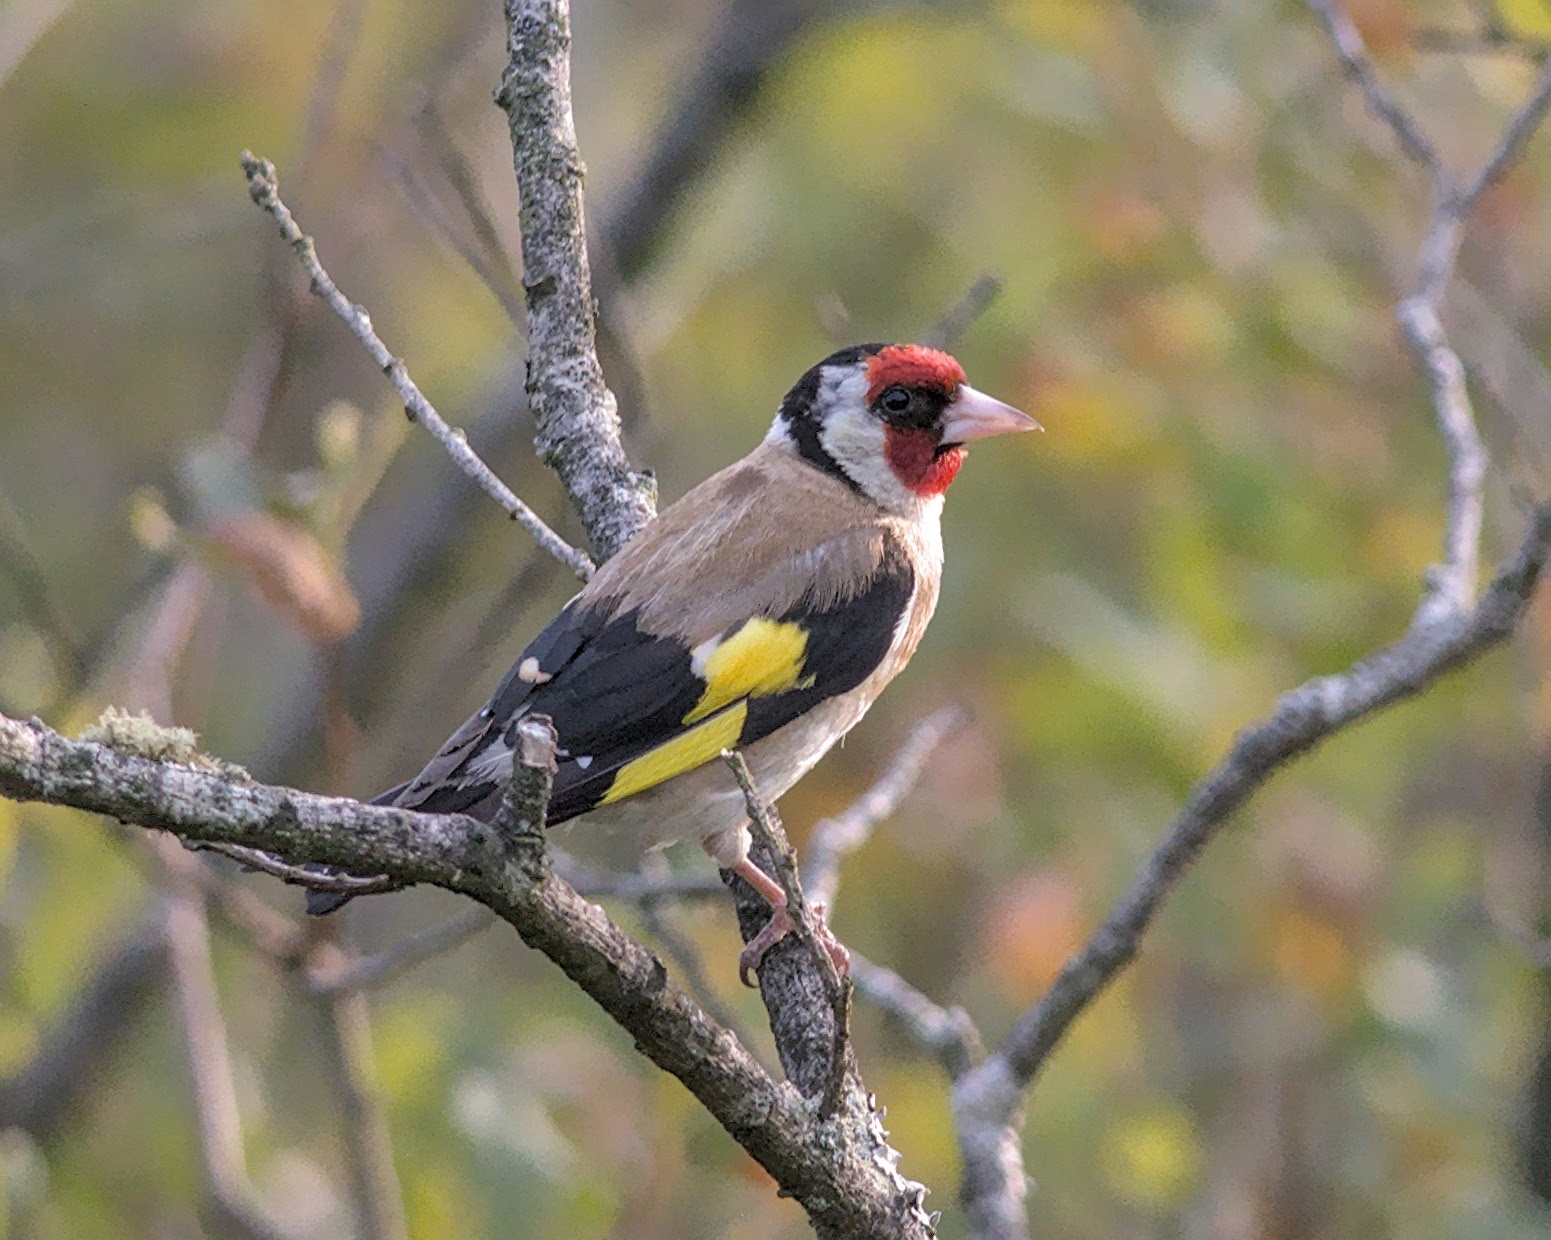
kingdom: Animalia
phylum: Chordata
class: Aves
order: Passeriformes
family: Fringillidae
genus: Carduelis
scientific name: Carduelis carduelis
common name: European goldfinch
